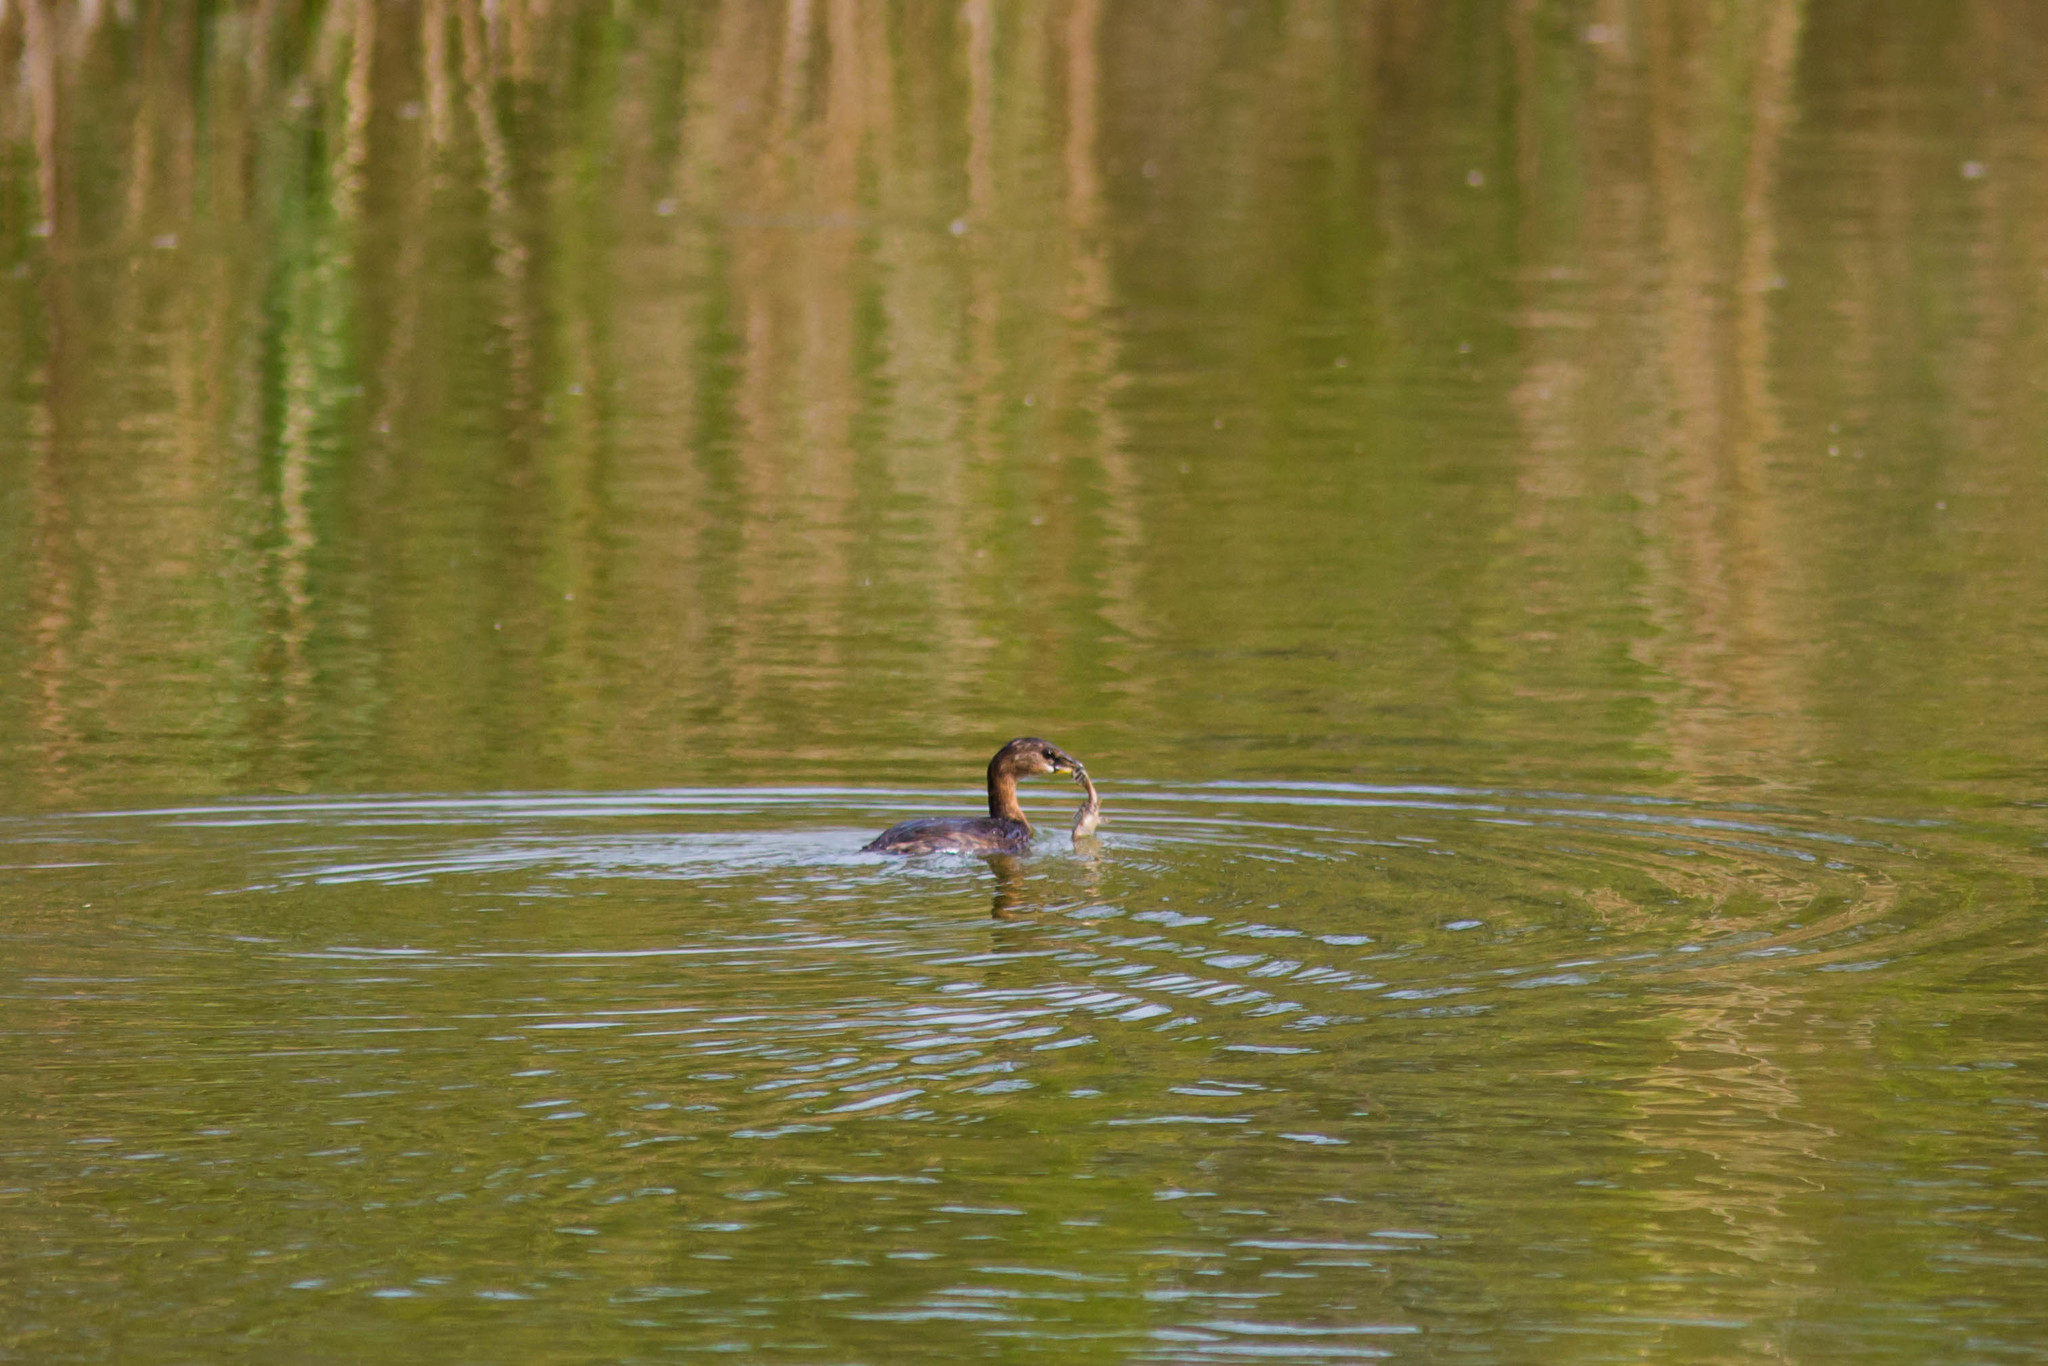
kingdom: Animalia
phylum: Chordata
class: Aves
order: Podicipediformes
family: Podicipedidae
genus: Podilymbus
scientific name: Podilymbus podiceps
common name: Pied-billed grebe
